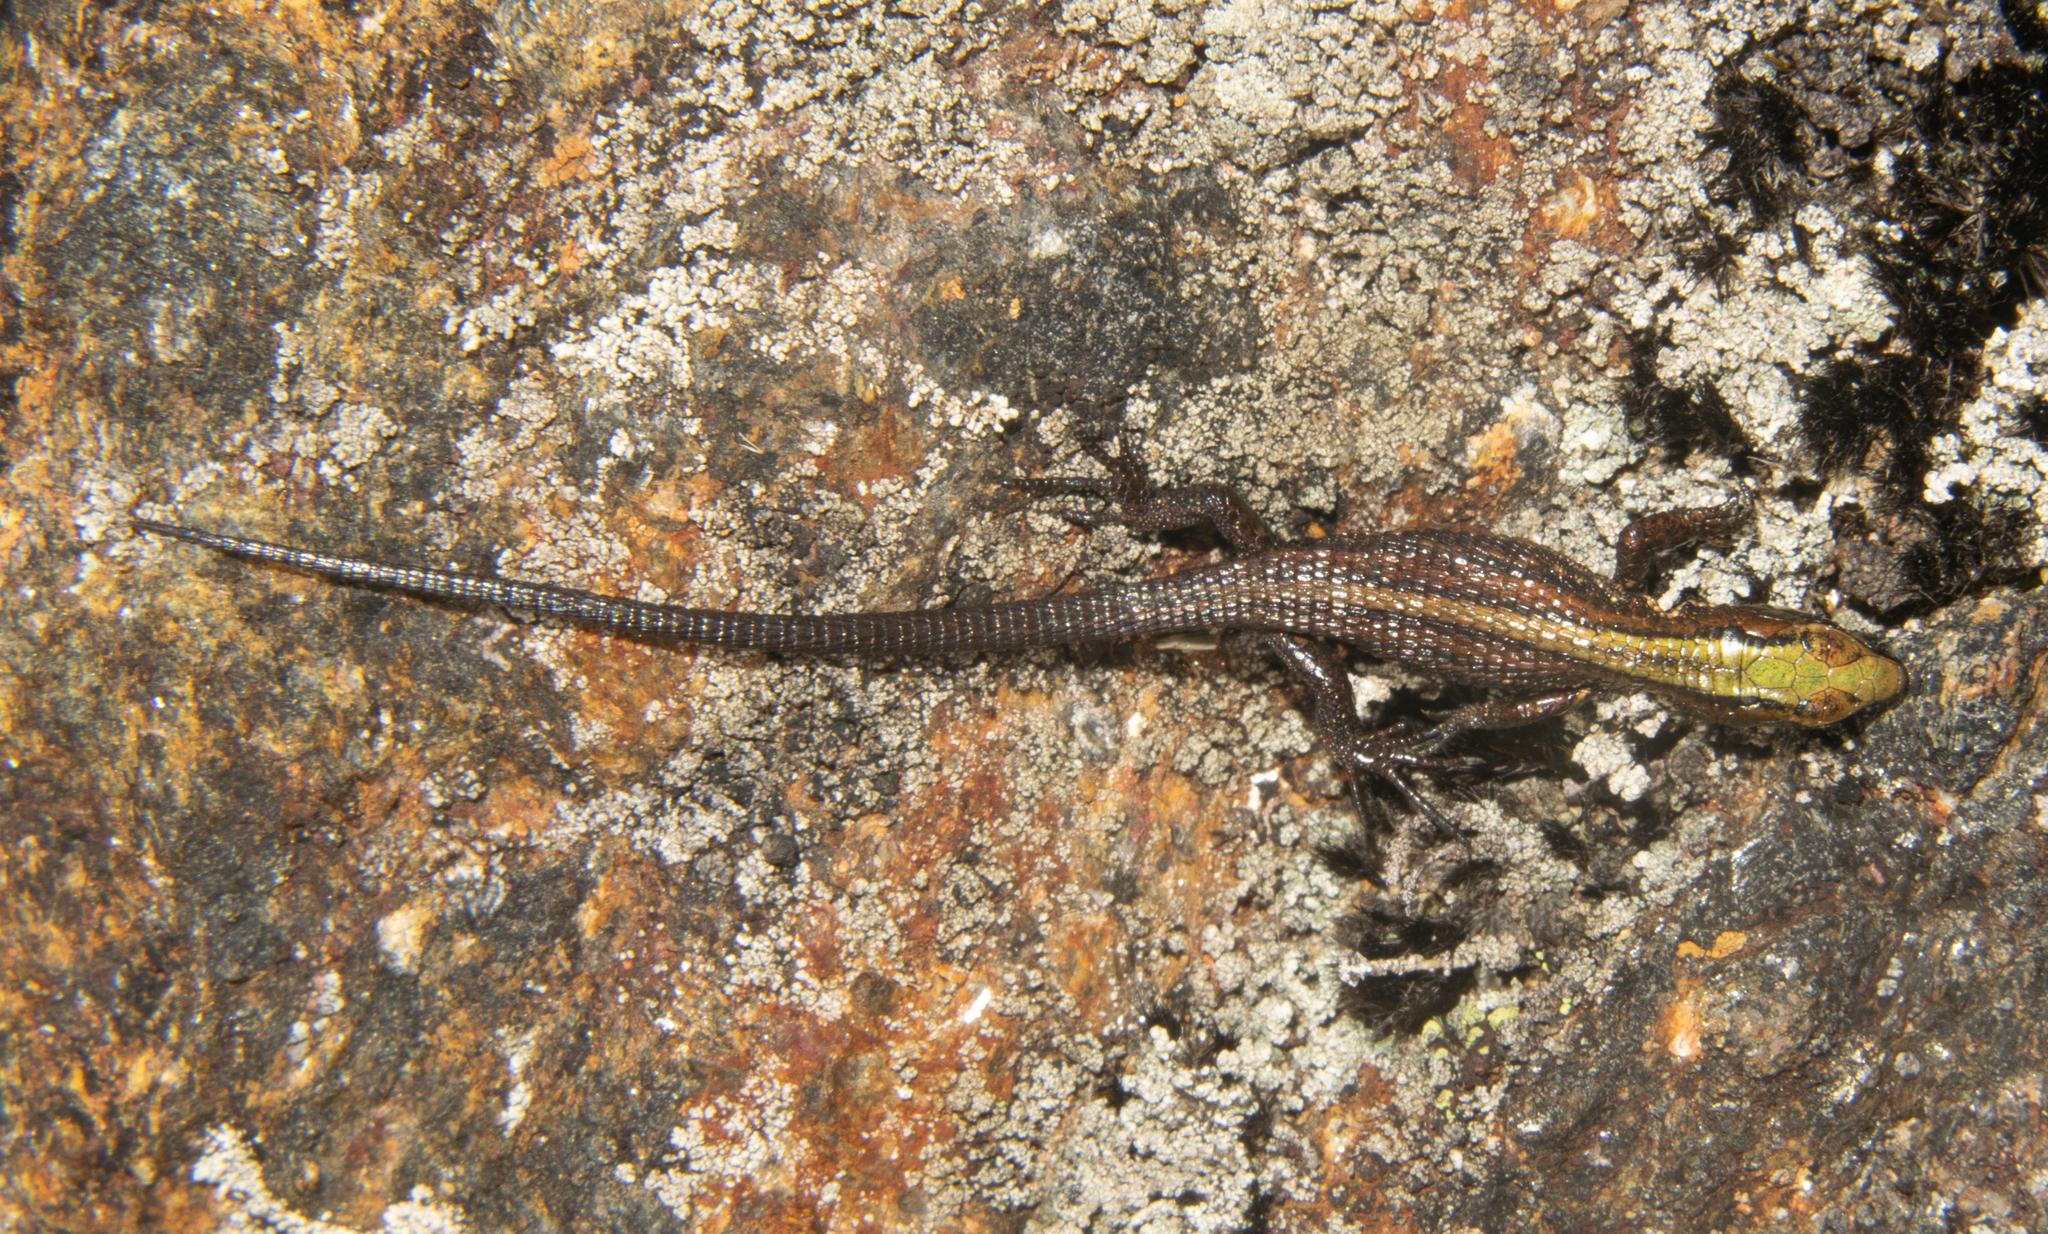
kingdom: Animalia
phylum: Chordata
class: Squamata
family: Gymnophthalmidae
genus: Pholidobolus
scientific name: Pholidobolus paramuno
